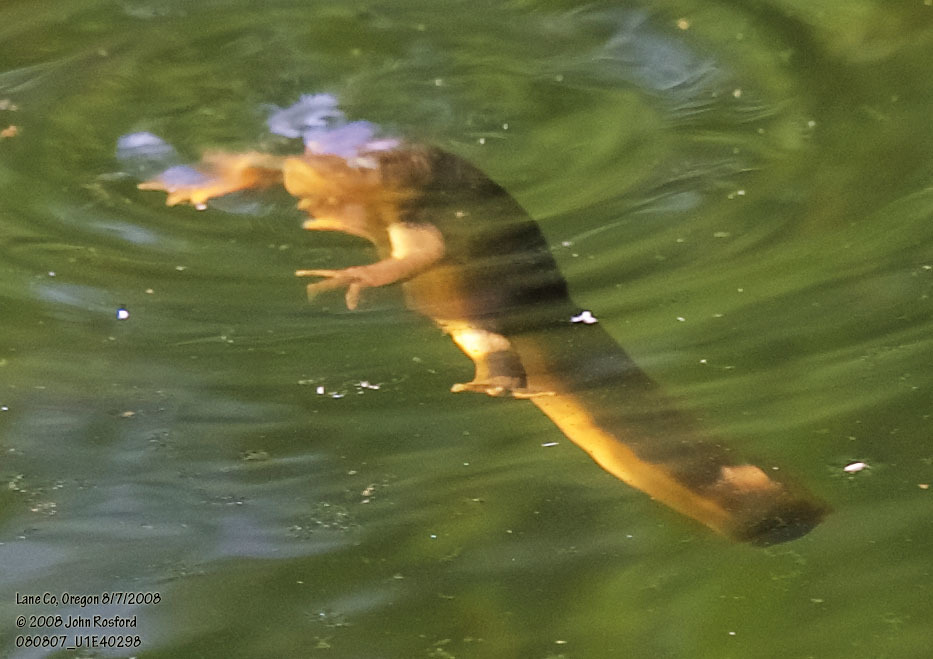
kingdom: Animalia
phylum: Chordata
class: Amphibia
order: Caudata
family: Salamandridae
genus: Taricha
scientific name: Taricha granulosa
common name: Roughskin newt
